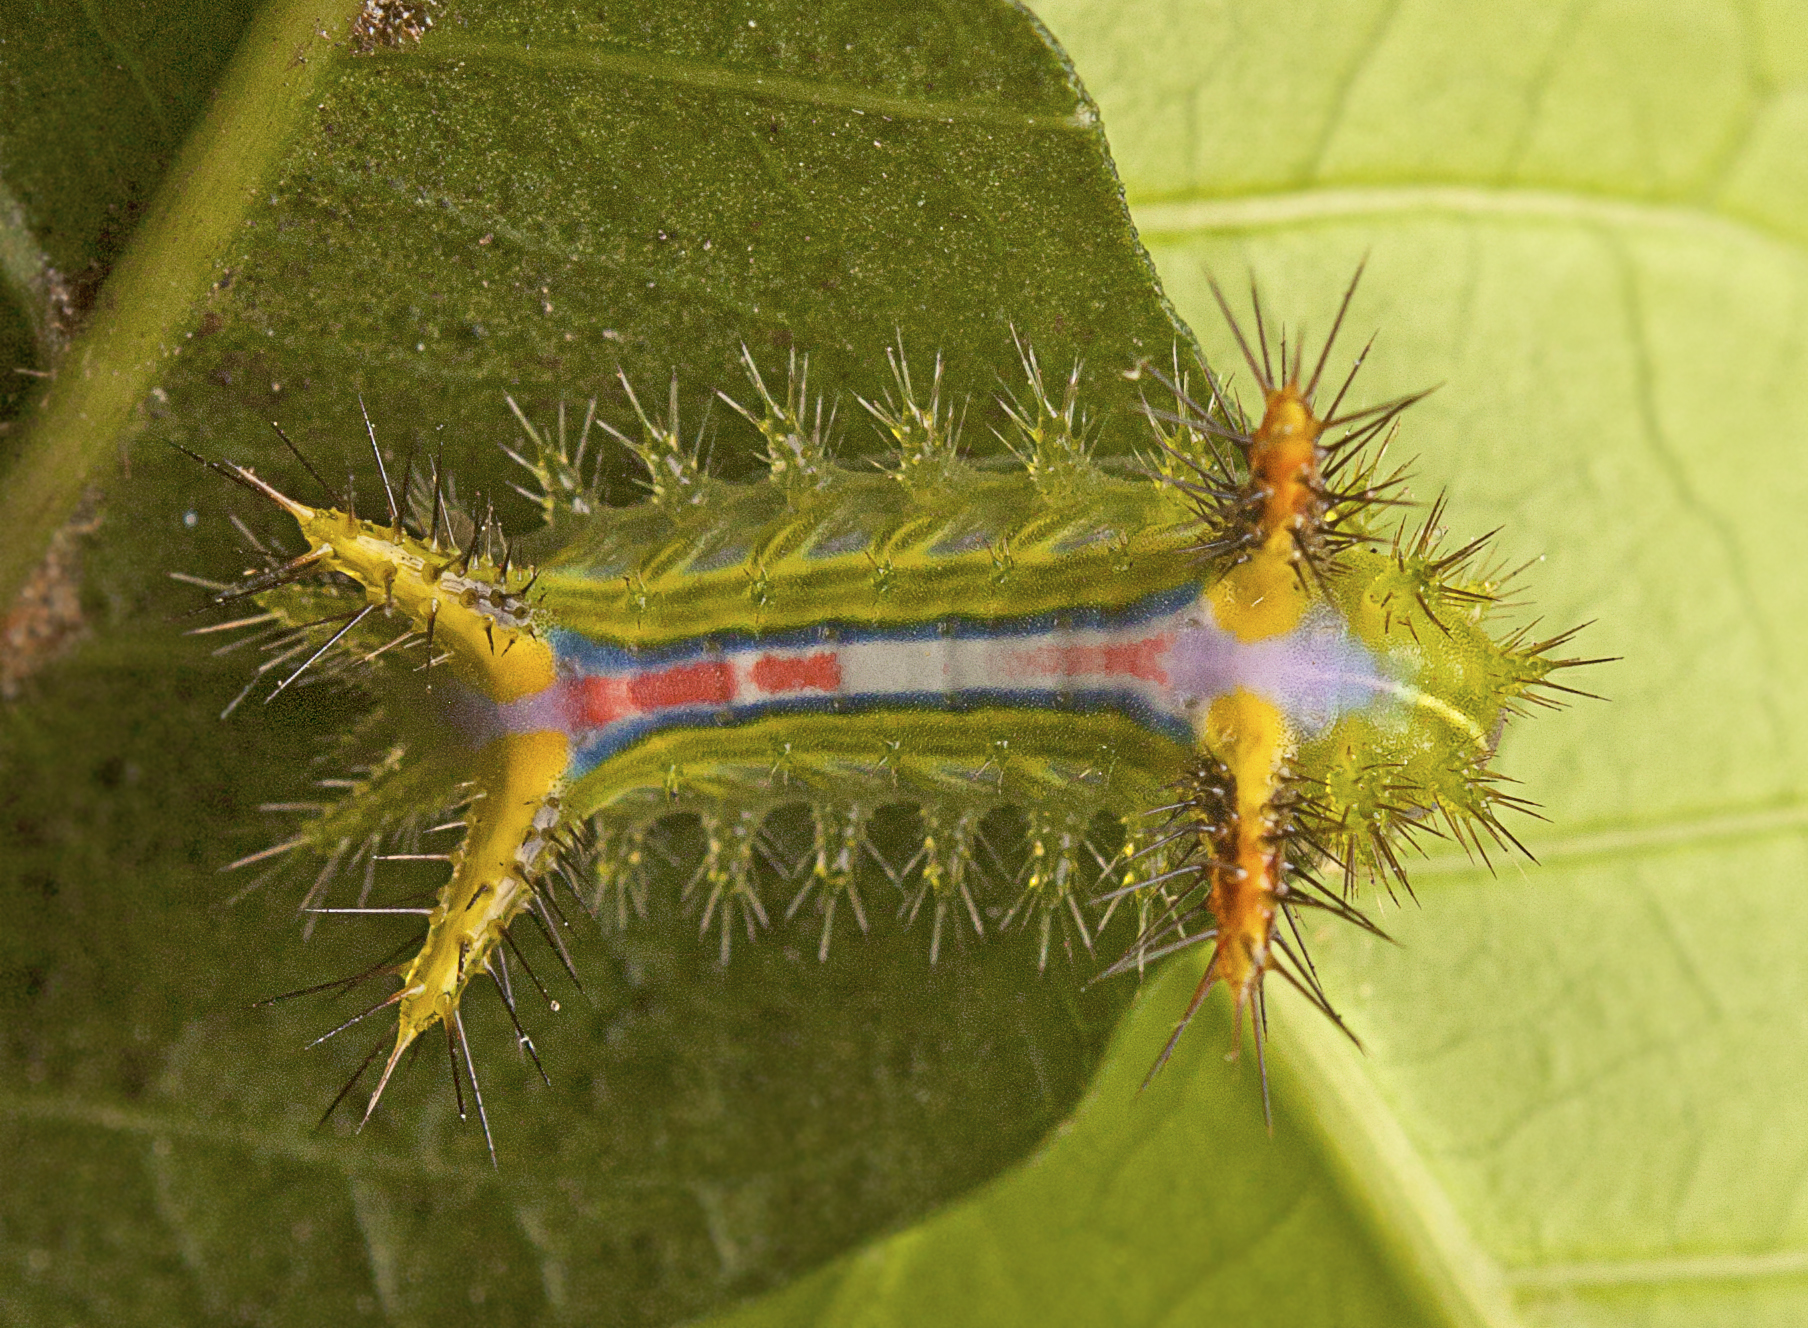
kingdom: Animalia
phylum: Arthropoda
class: Insecta
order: Lepidoptera
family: Limacodidae
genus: Anaxidia
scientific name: Anaxidia lozogramma
